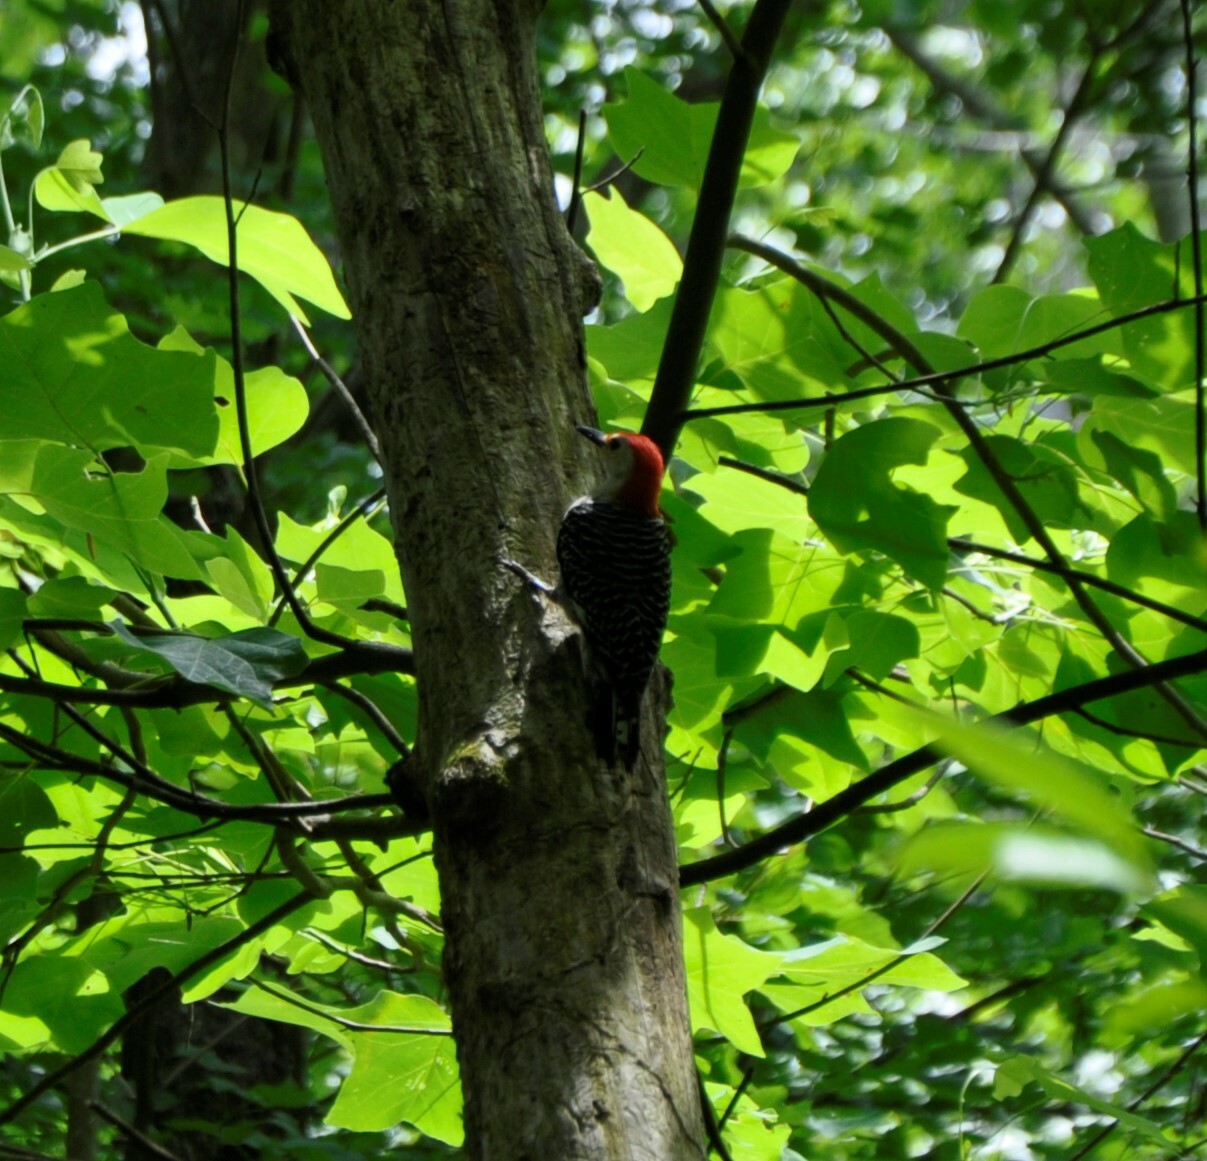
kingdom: Animalia
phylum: Chordata
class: Aves
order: Piciformes
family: Picidae
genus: Melanerpes
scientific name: Melanerpes carolinus
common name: Red-bellied woodpecker
